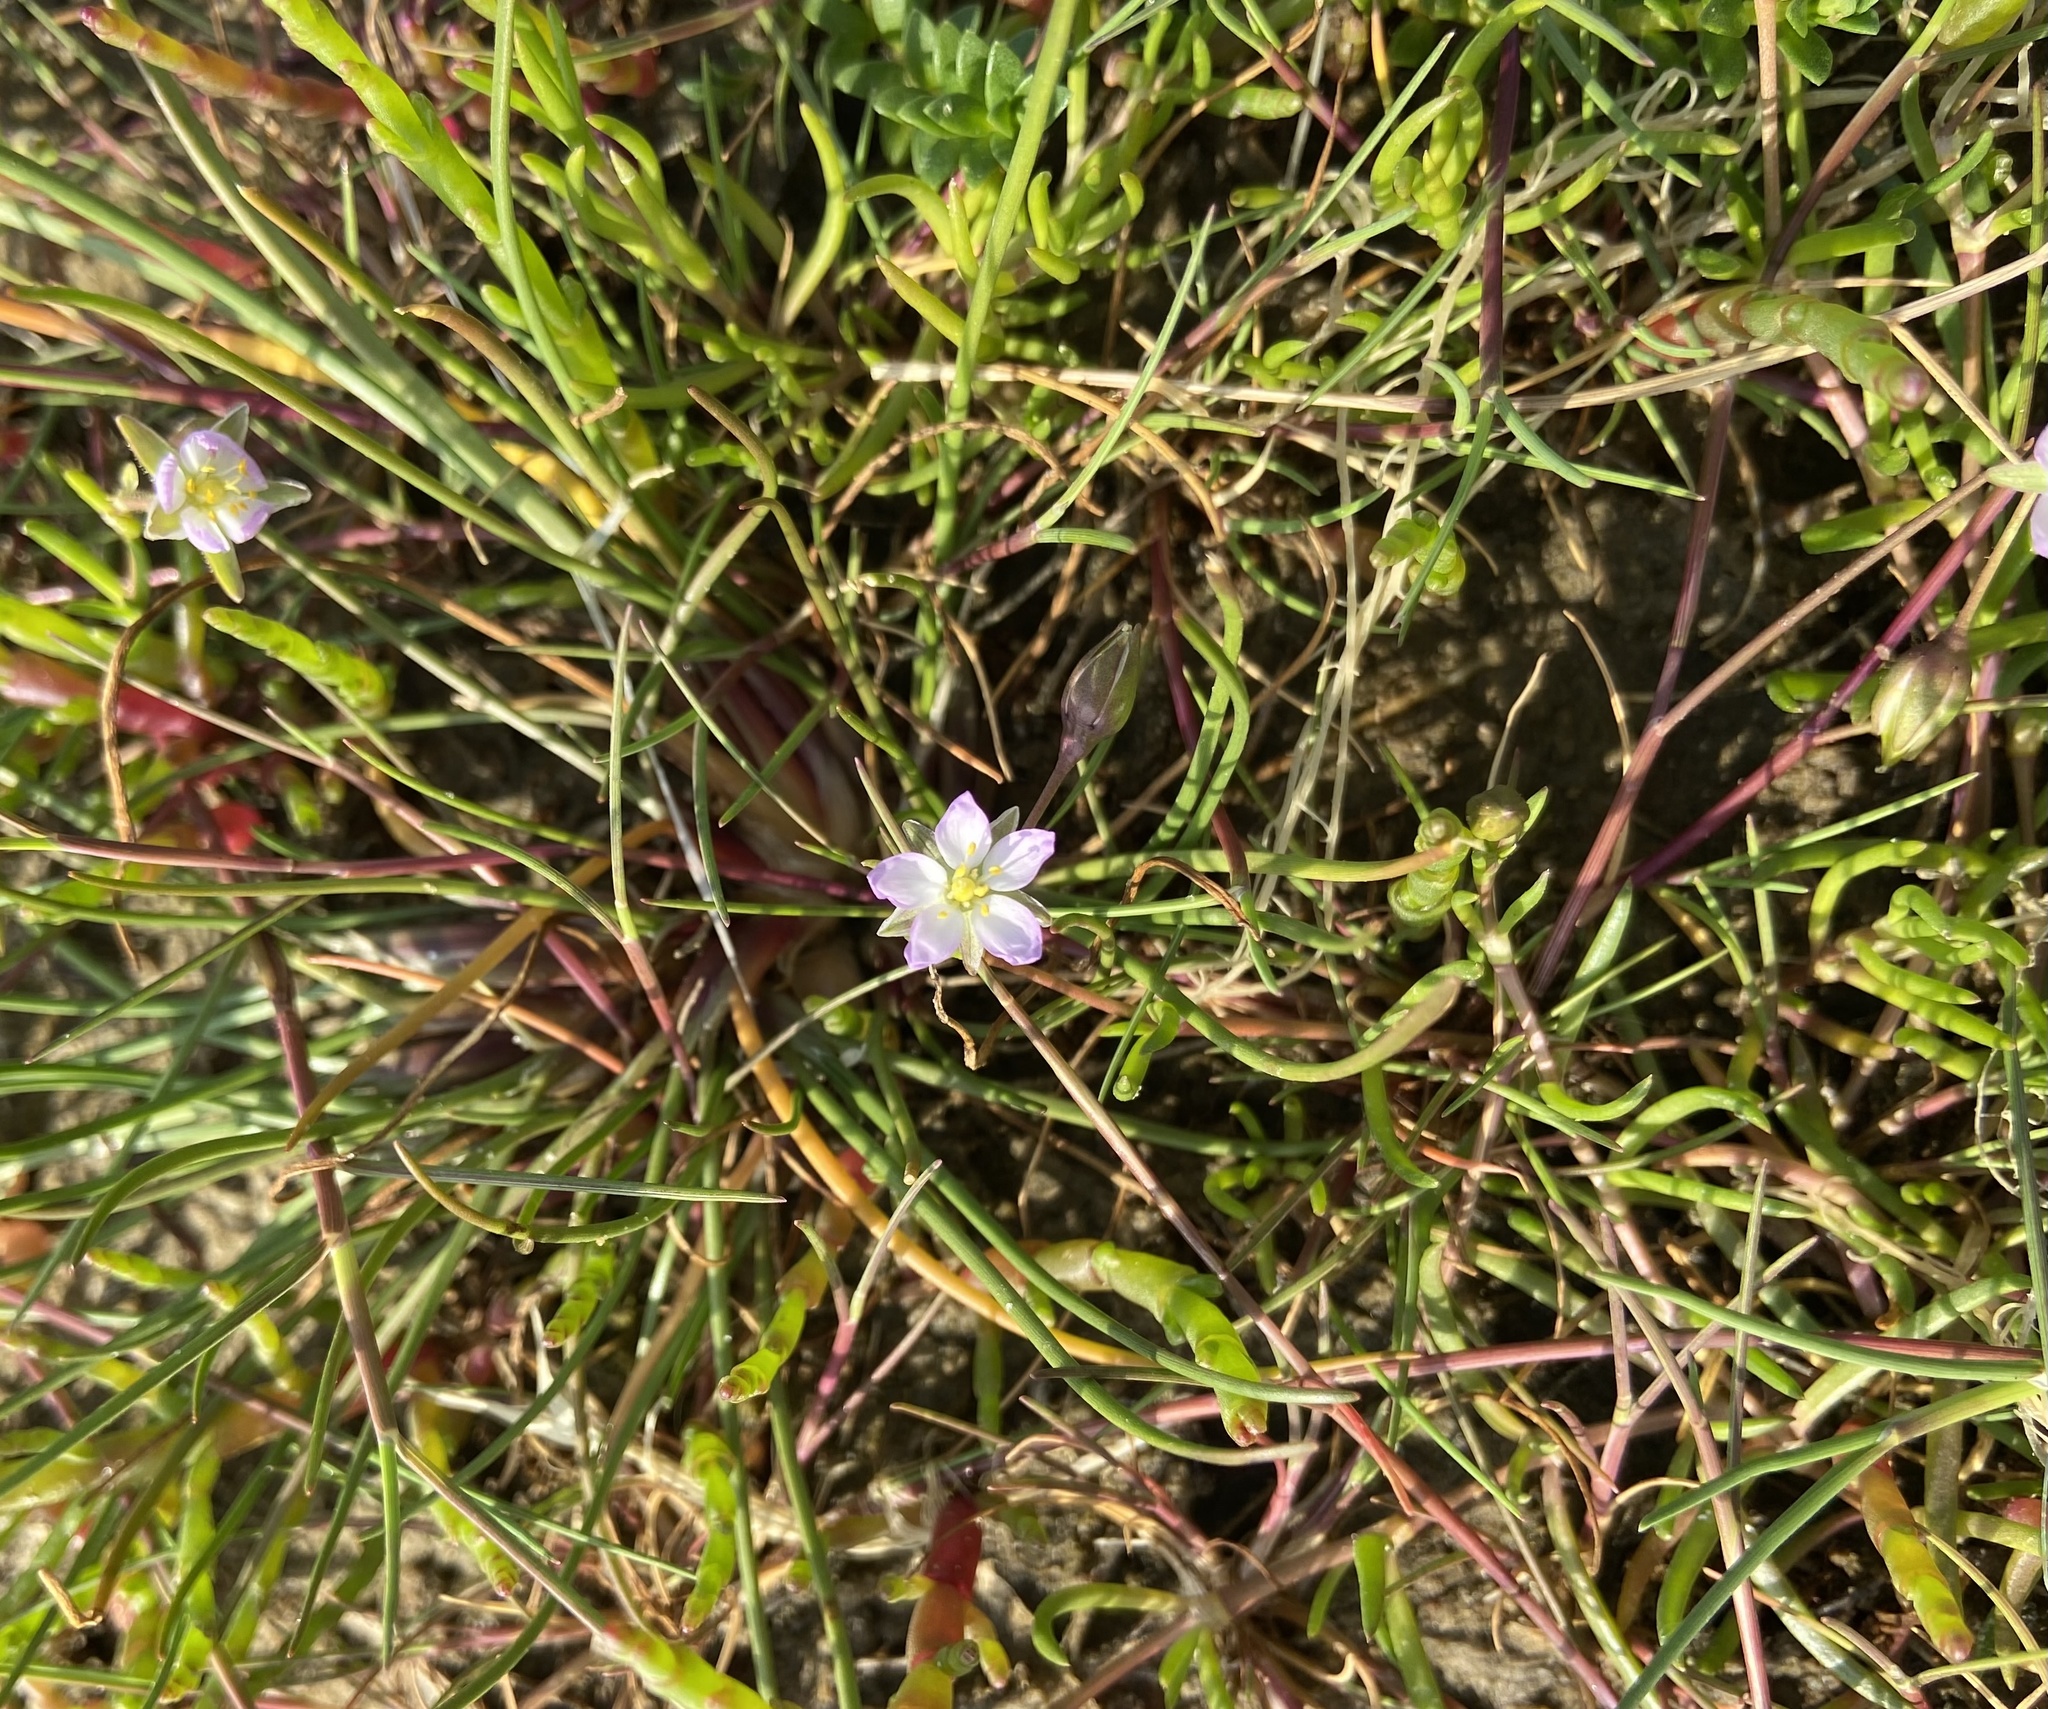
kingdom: Plantae
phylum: Tracheophyta
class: Magnoliopsida
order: Caryophyllales
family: Caryophyllaceae
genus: Spergularia
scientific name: Spergularia media
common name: Greater sea-spurrey
